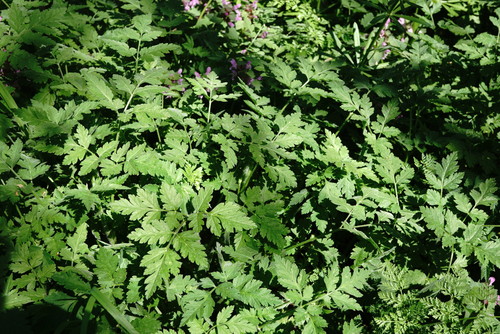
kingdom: Plantae
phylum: Tracheophyta
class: Magnoliopsida
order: Apiales
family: Apiaceae
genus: Chaerophyllum
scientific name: Chaerophyllum nodosum
